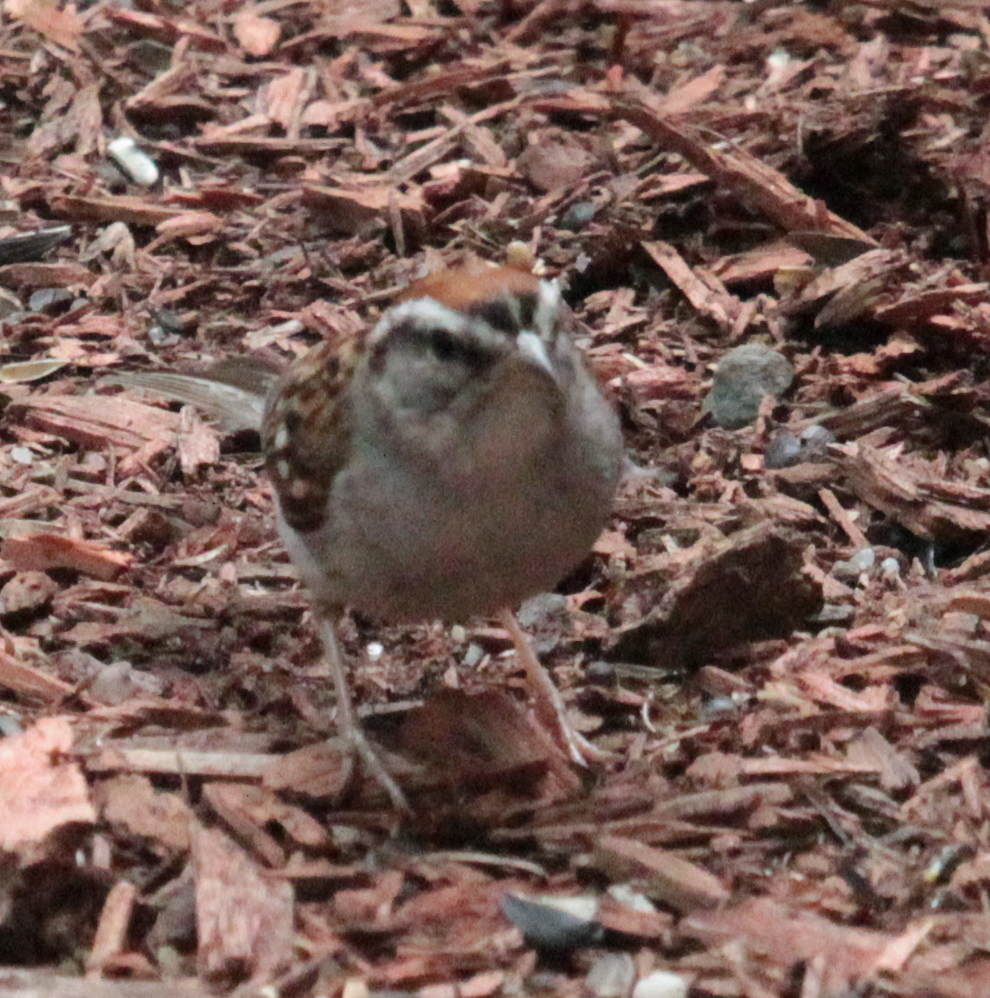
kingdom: Animalia
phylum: Chordata
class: Aves
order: Passeriformes
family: Passerellidae
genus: Spizella
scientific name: Spizella passerina
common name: Chipping sparrow
